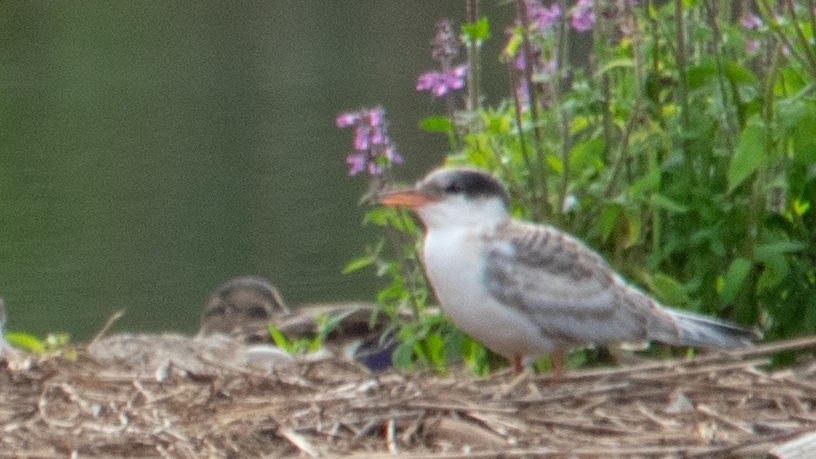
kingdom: Animalia
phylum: Chordata
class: Aves
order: Charadriiformes
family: Laridae
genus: Sterna
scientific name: Sterna hirundo
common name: Common tern
